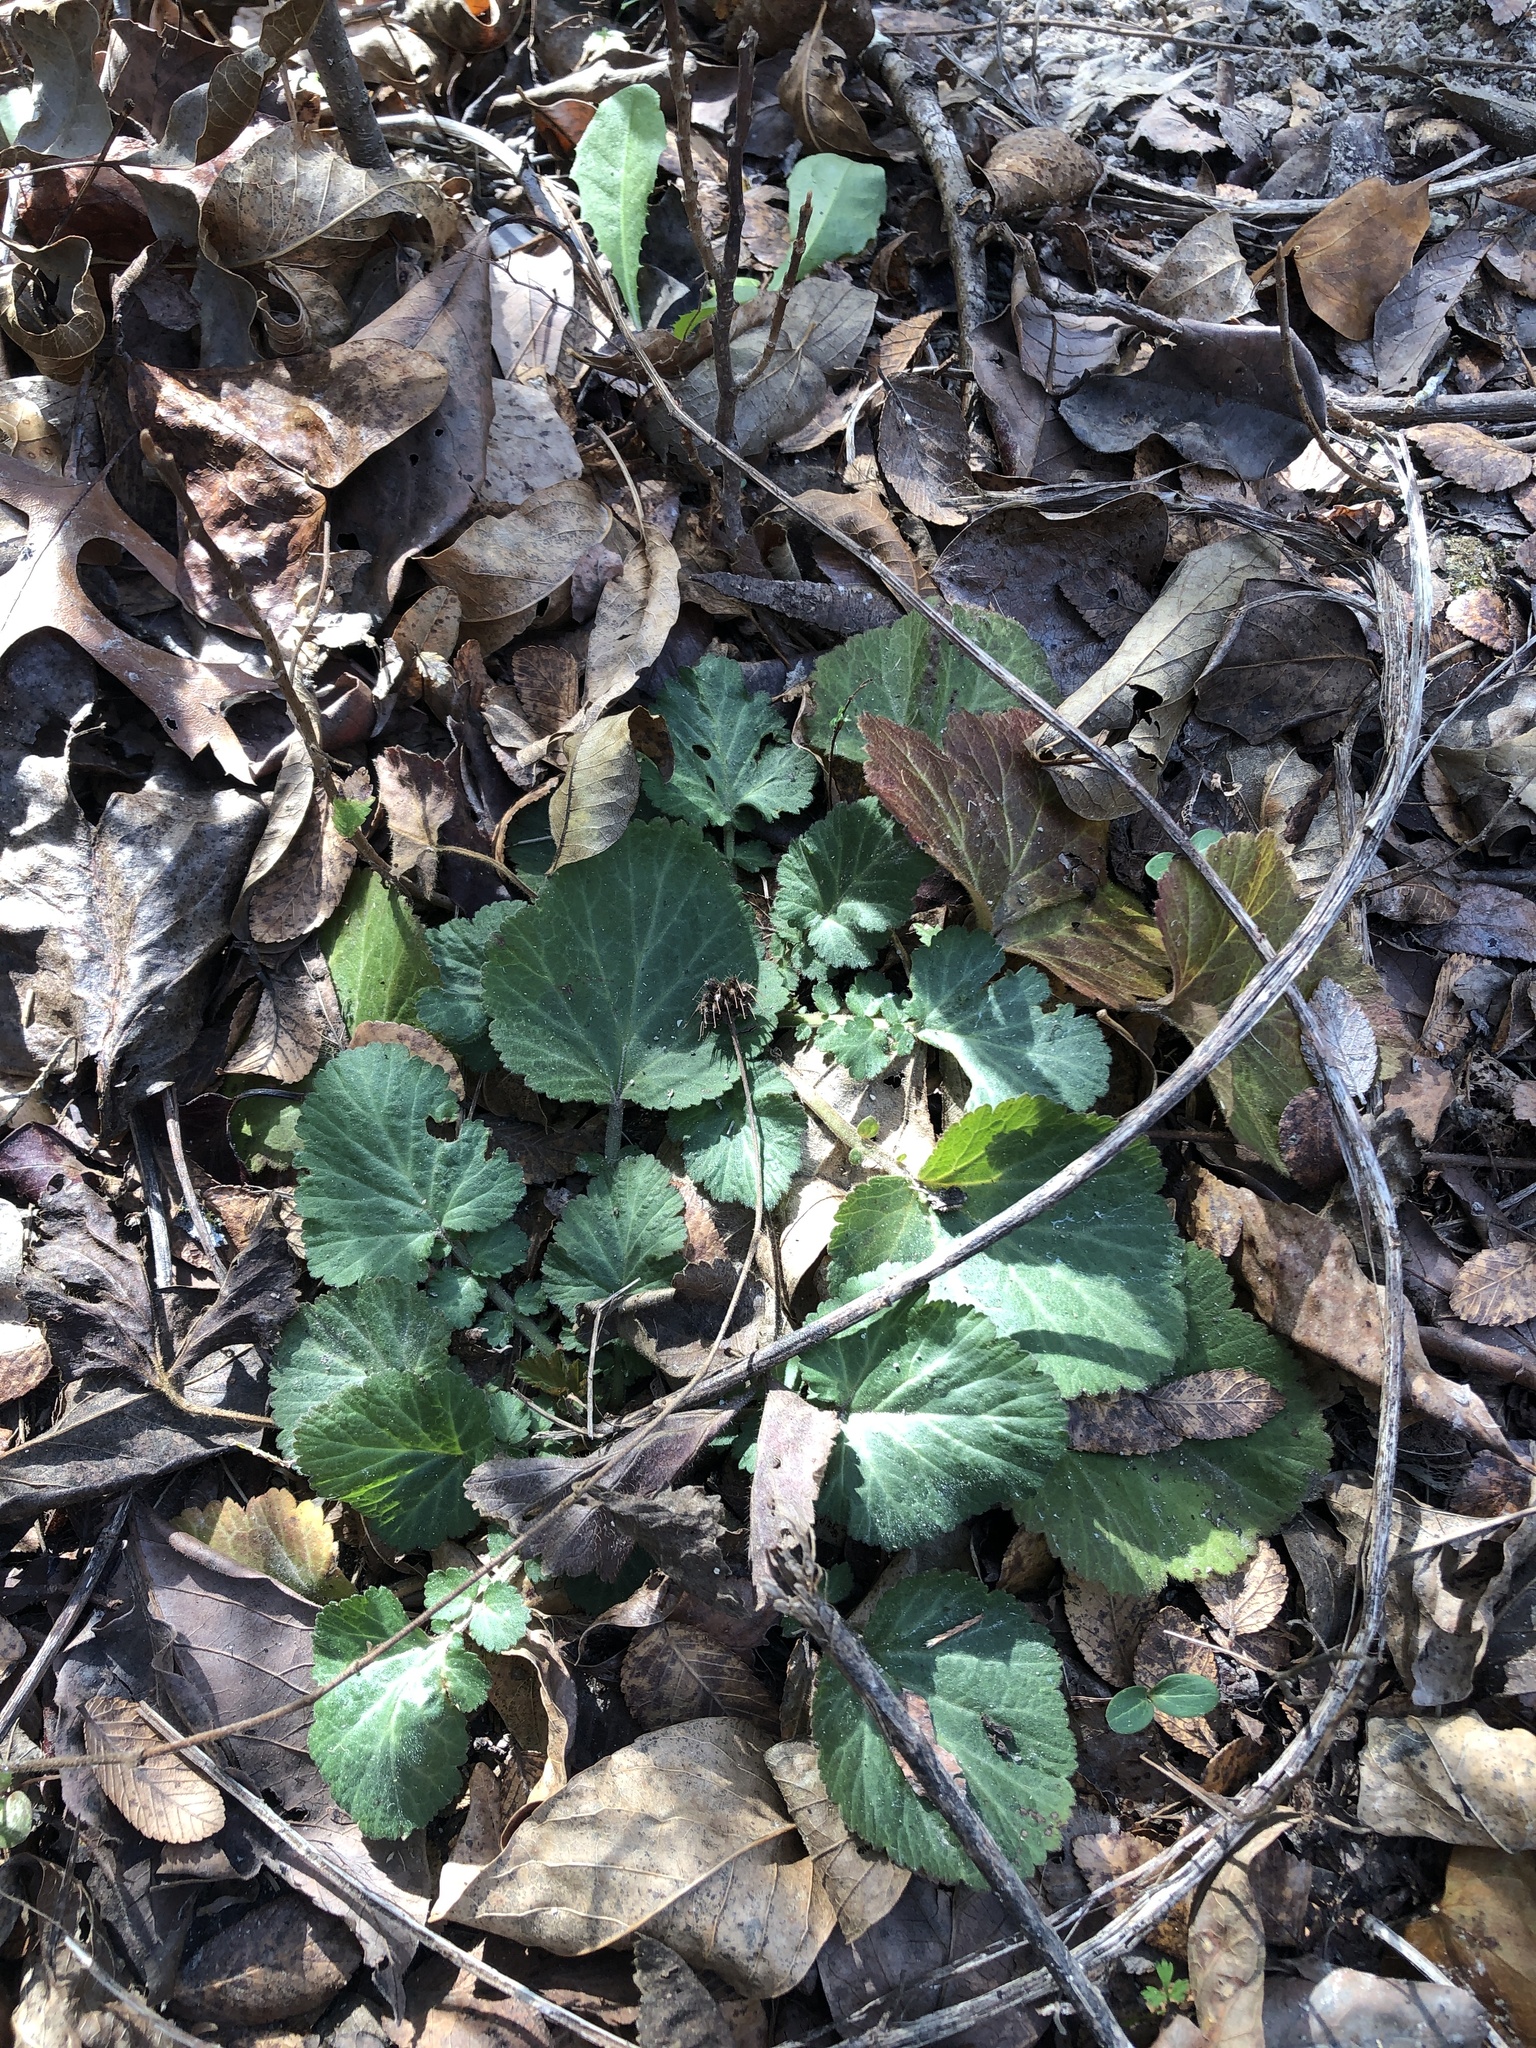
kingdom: Plantae
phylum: Tracheophyta
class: Magnoliopsida
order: Rosales
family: Rosaceae
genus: Geum
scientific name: Geum canadense
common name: White avens
